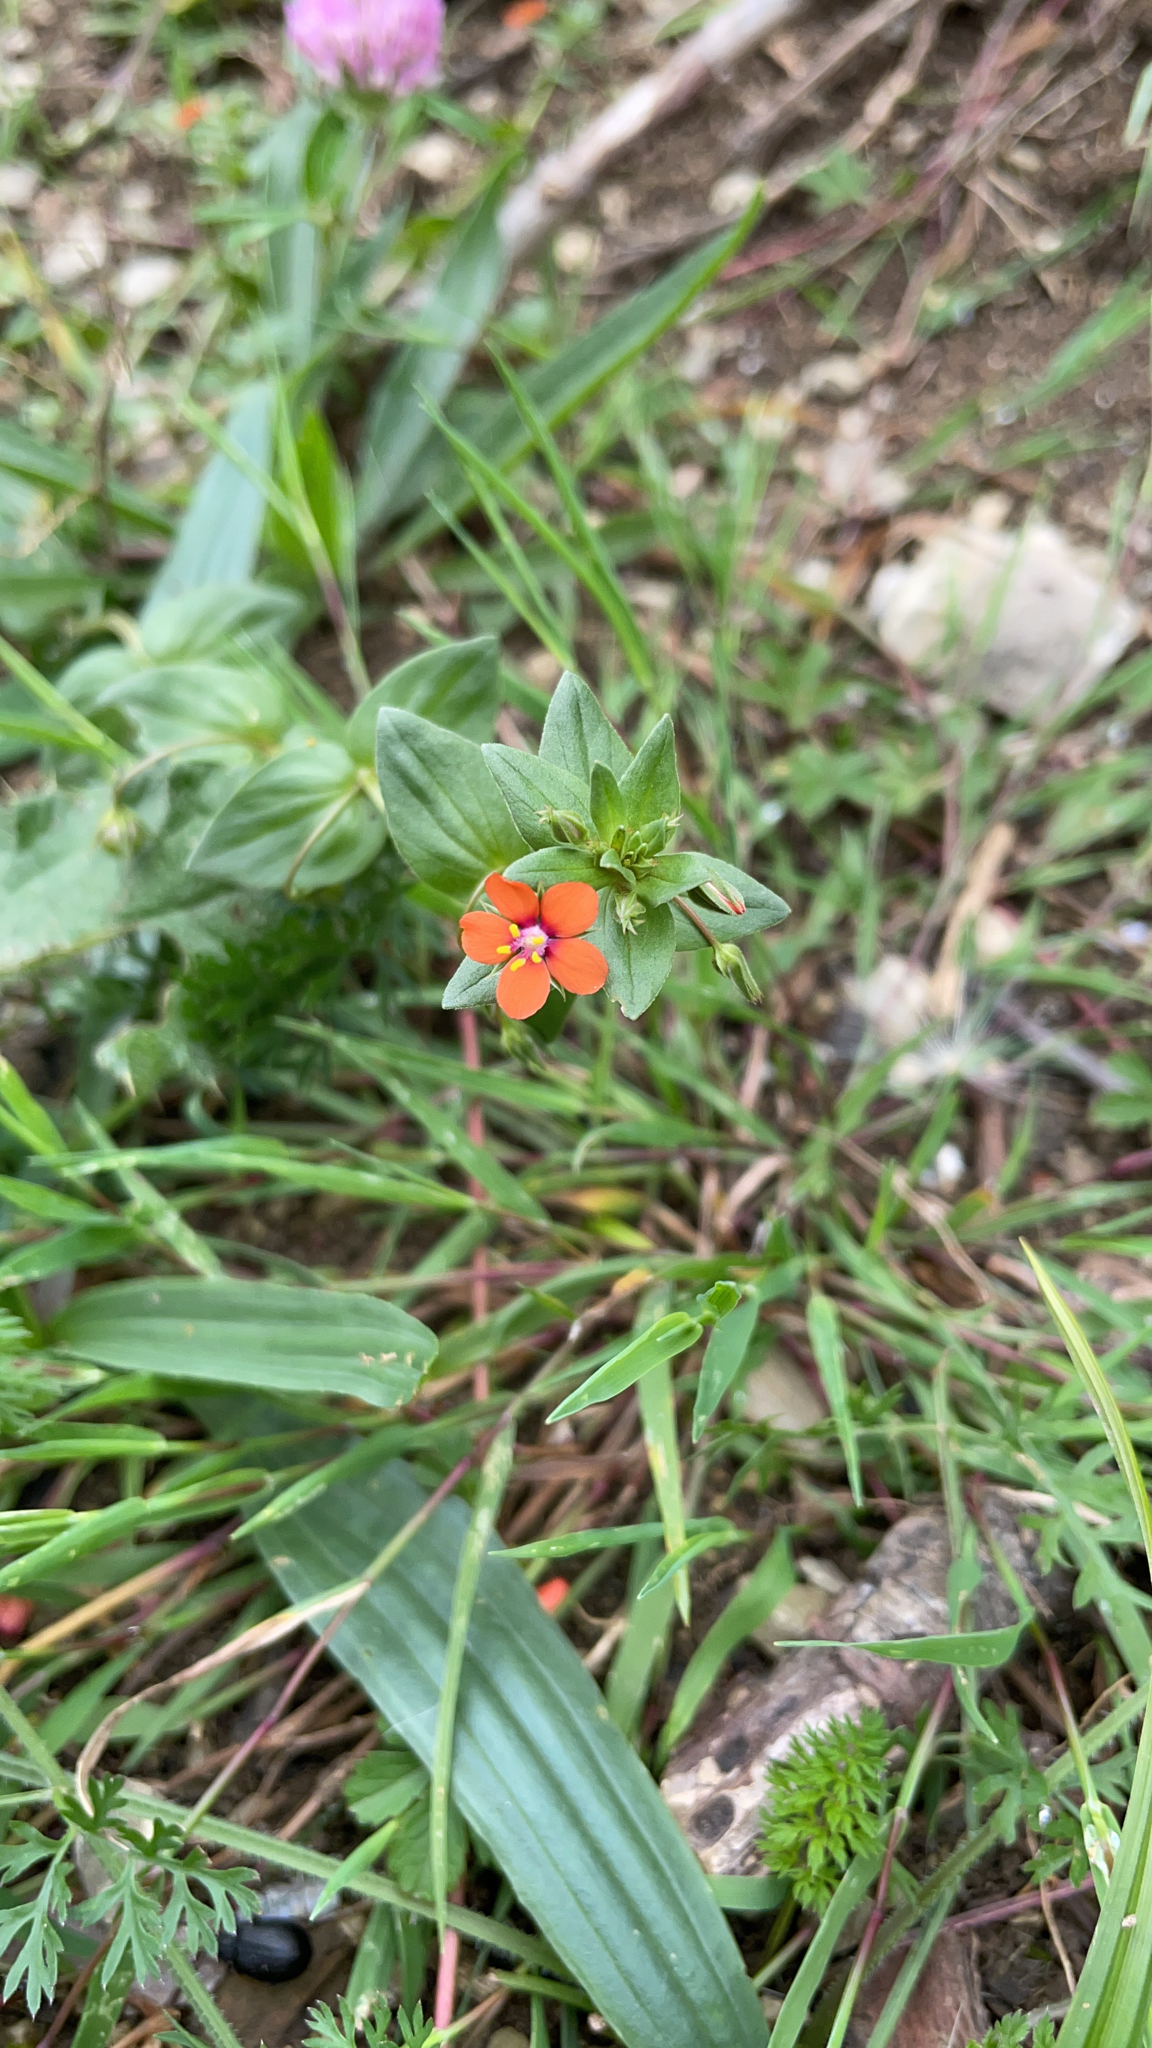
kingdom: Plantae
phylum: Tracheophyta
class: Magnoliopsida
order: Ericales
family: Primulaceae
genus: Lysimachia
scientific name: Lysimachia arvensis
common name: Scarlet pimpernel
